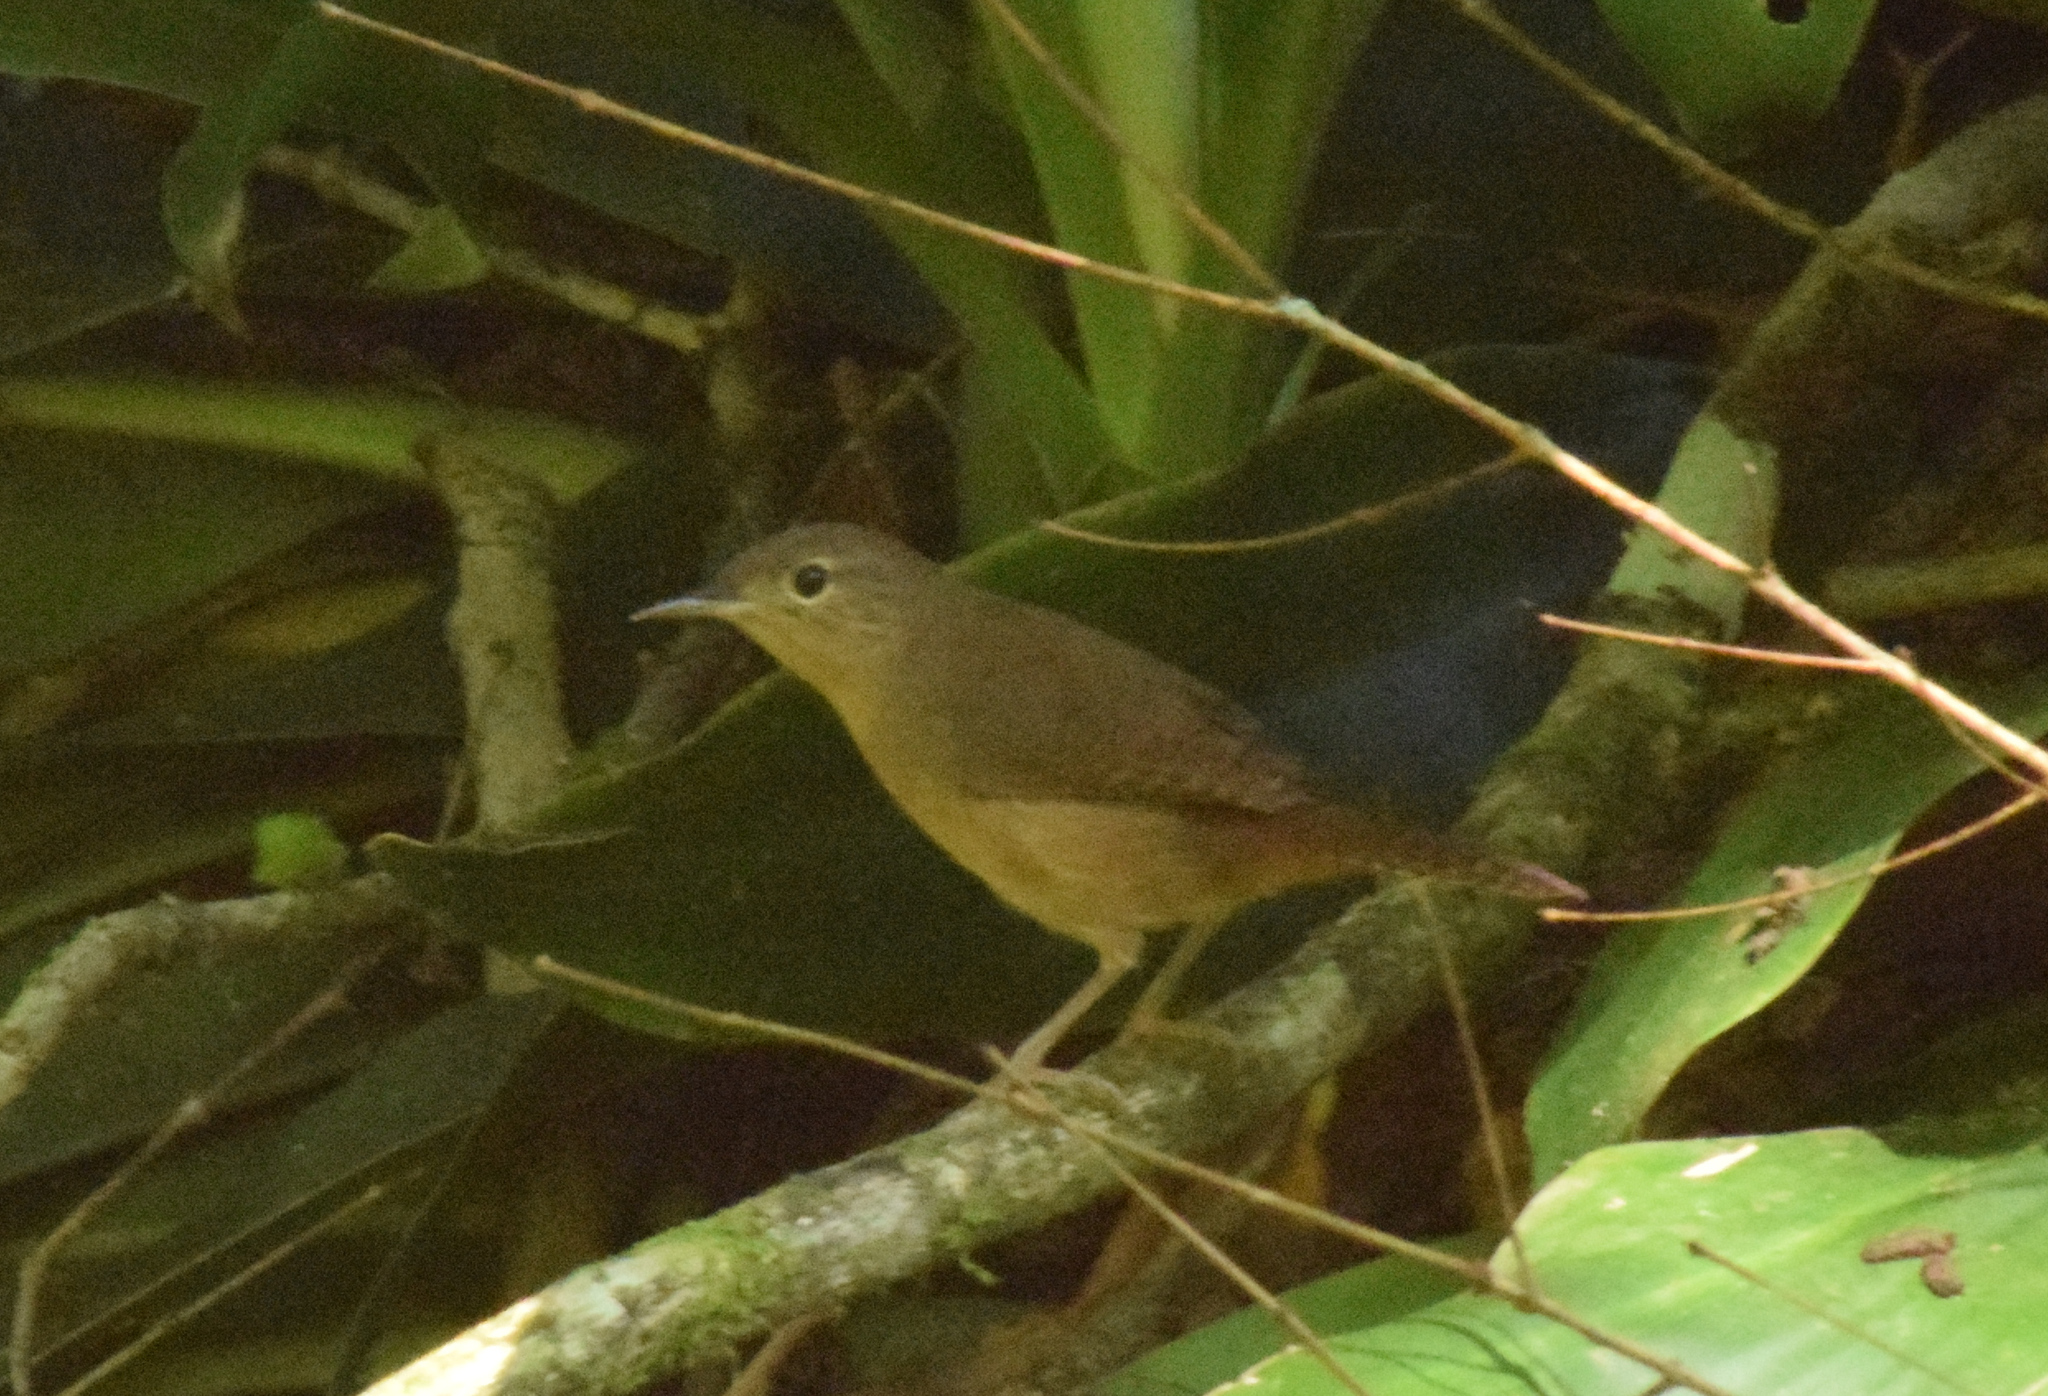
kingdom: Animalia
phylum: Chordata
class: Aves
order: Passeriformes
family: Troglodytidae
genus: Troglodytes
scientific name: Troglodytes aedon
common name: House wren
